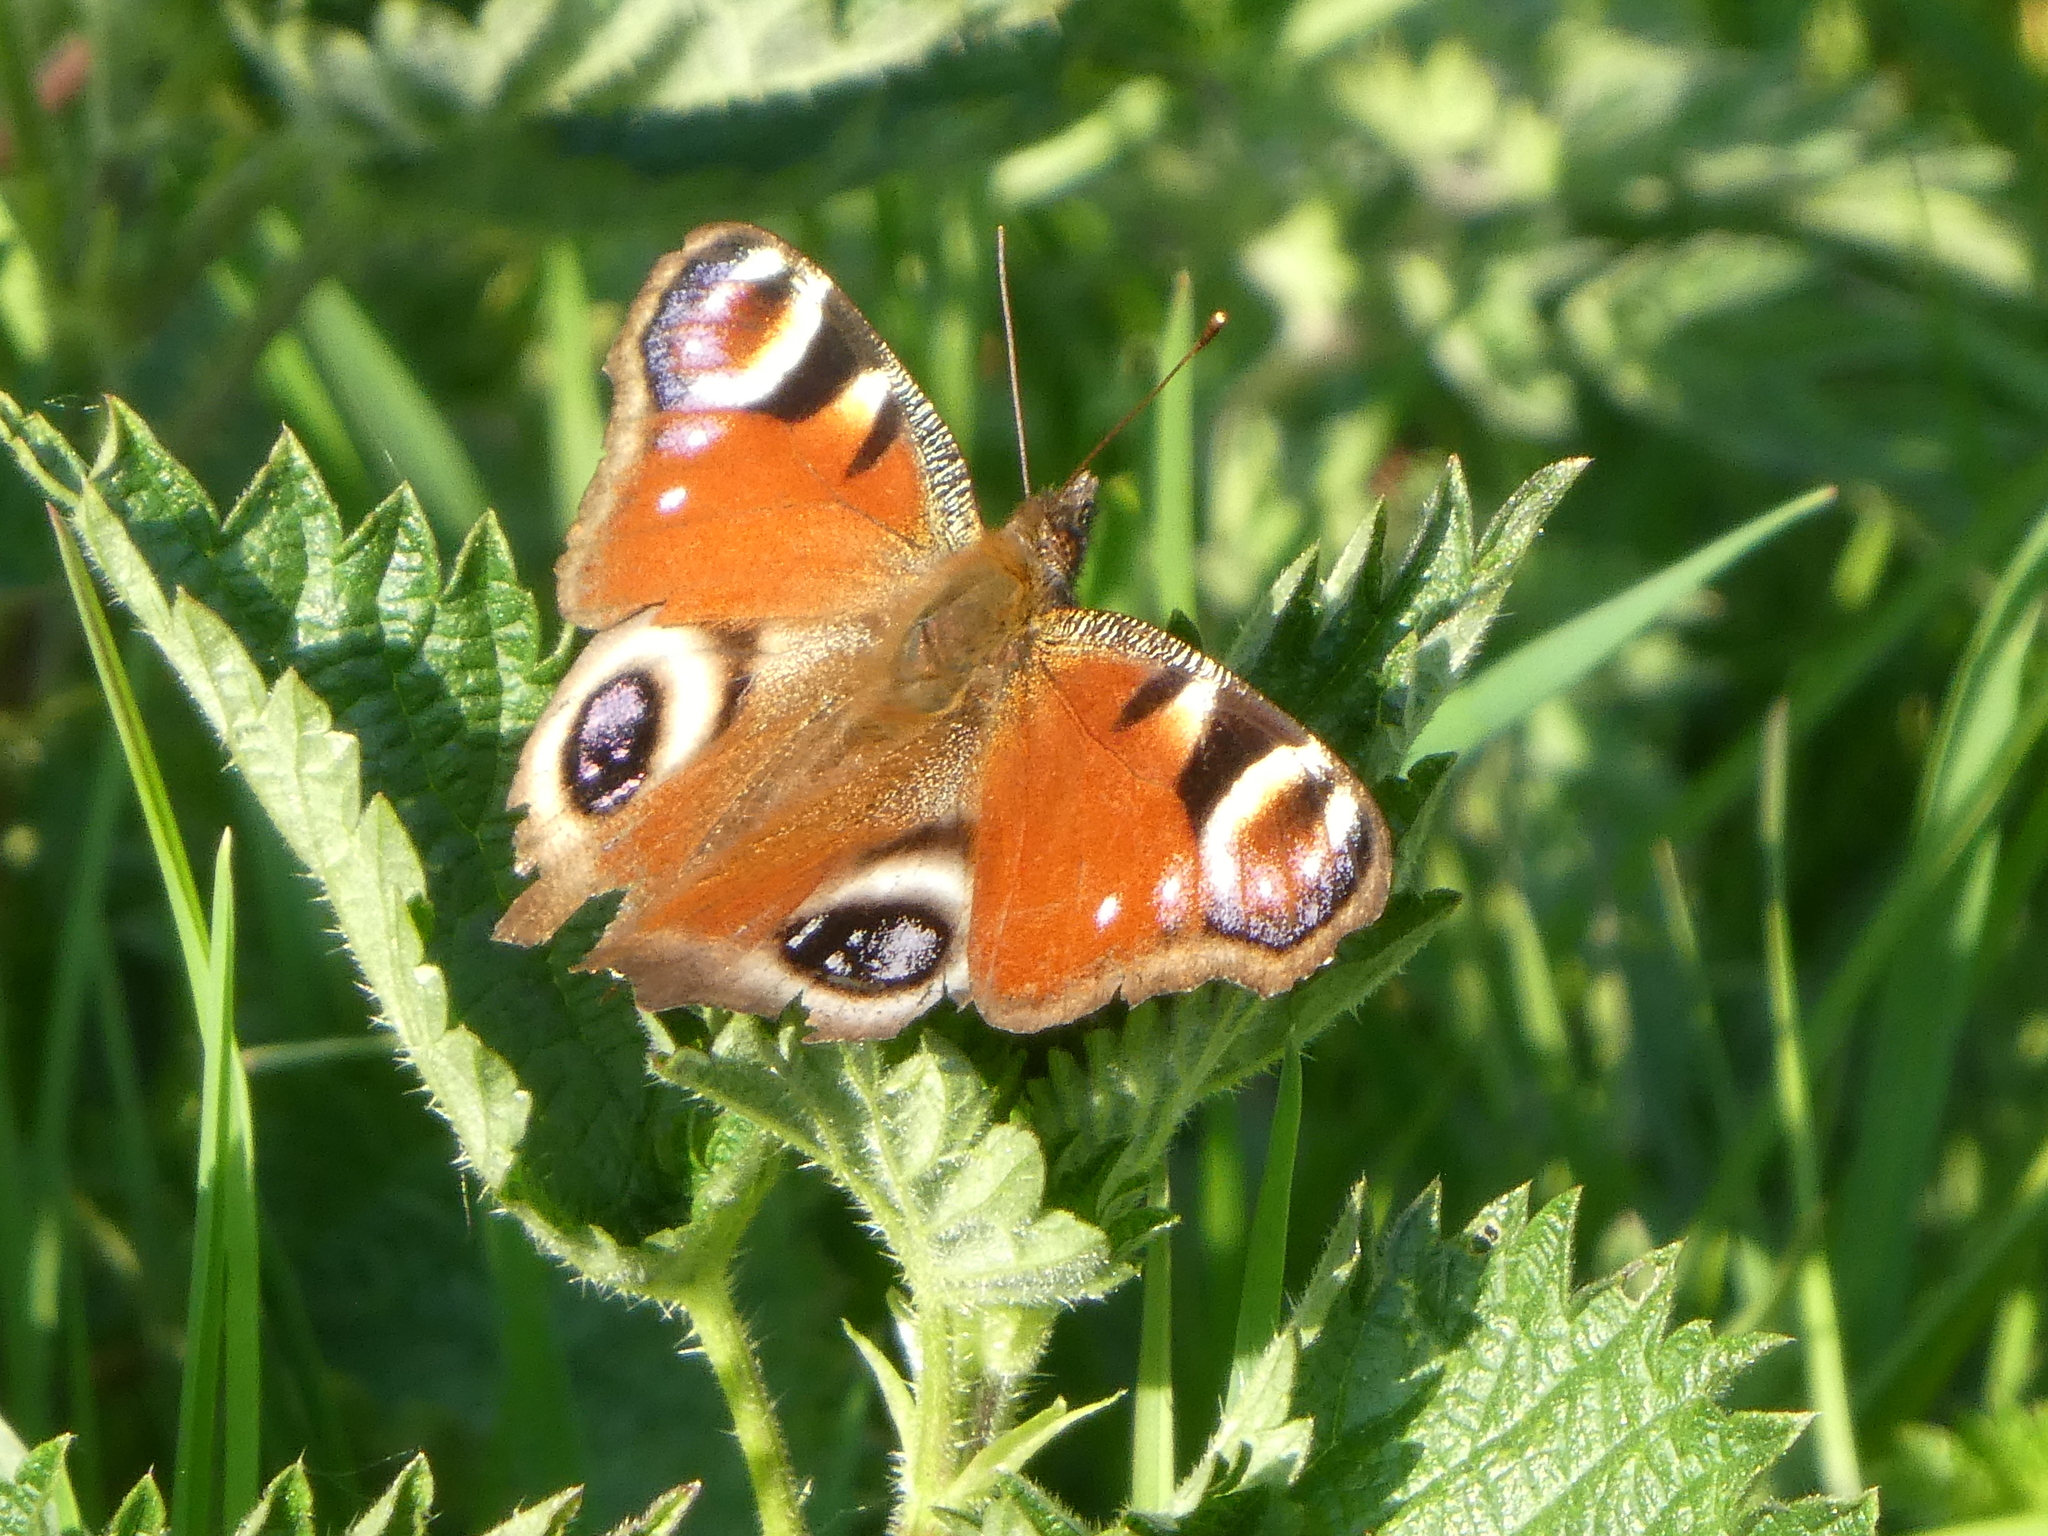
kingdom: Animalia
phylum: Arthropoda
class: Insecta
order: Lepidoptera
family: Nymphalidae
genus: Aglais
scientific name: Aglais io
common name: Peacock
